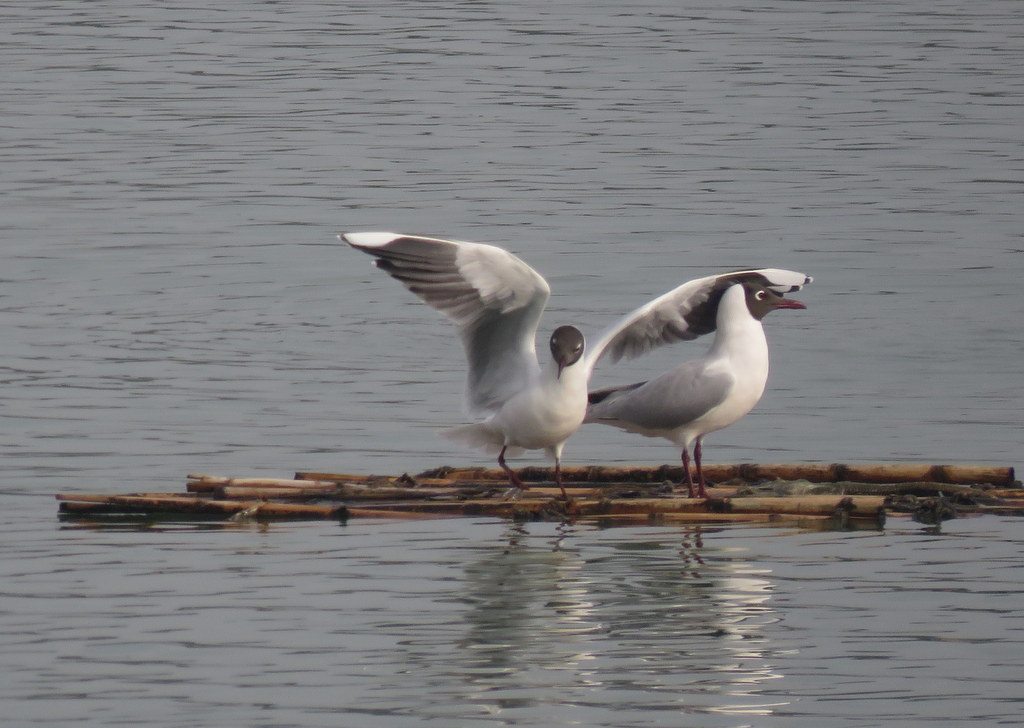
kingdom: Animalia
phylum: Chordata
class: Aves
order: Charadriiformes
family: Laridae
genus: Chroicocephalus
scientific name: Chroicocephalus maculipennis
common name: Brown-hooded gull
